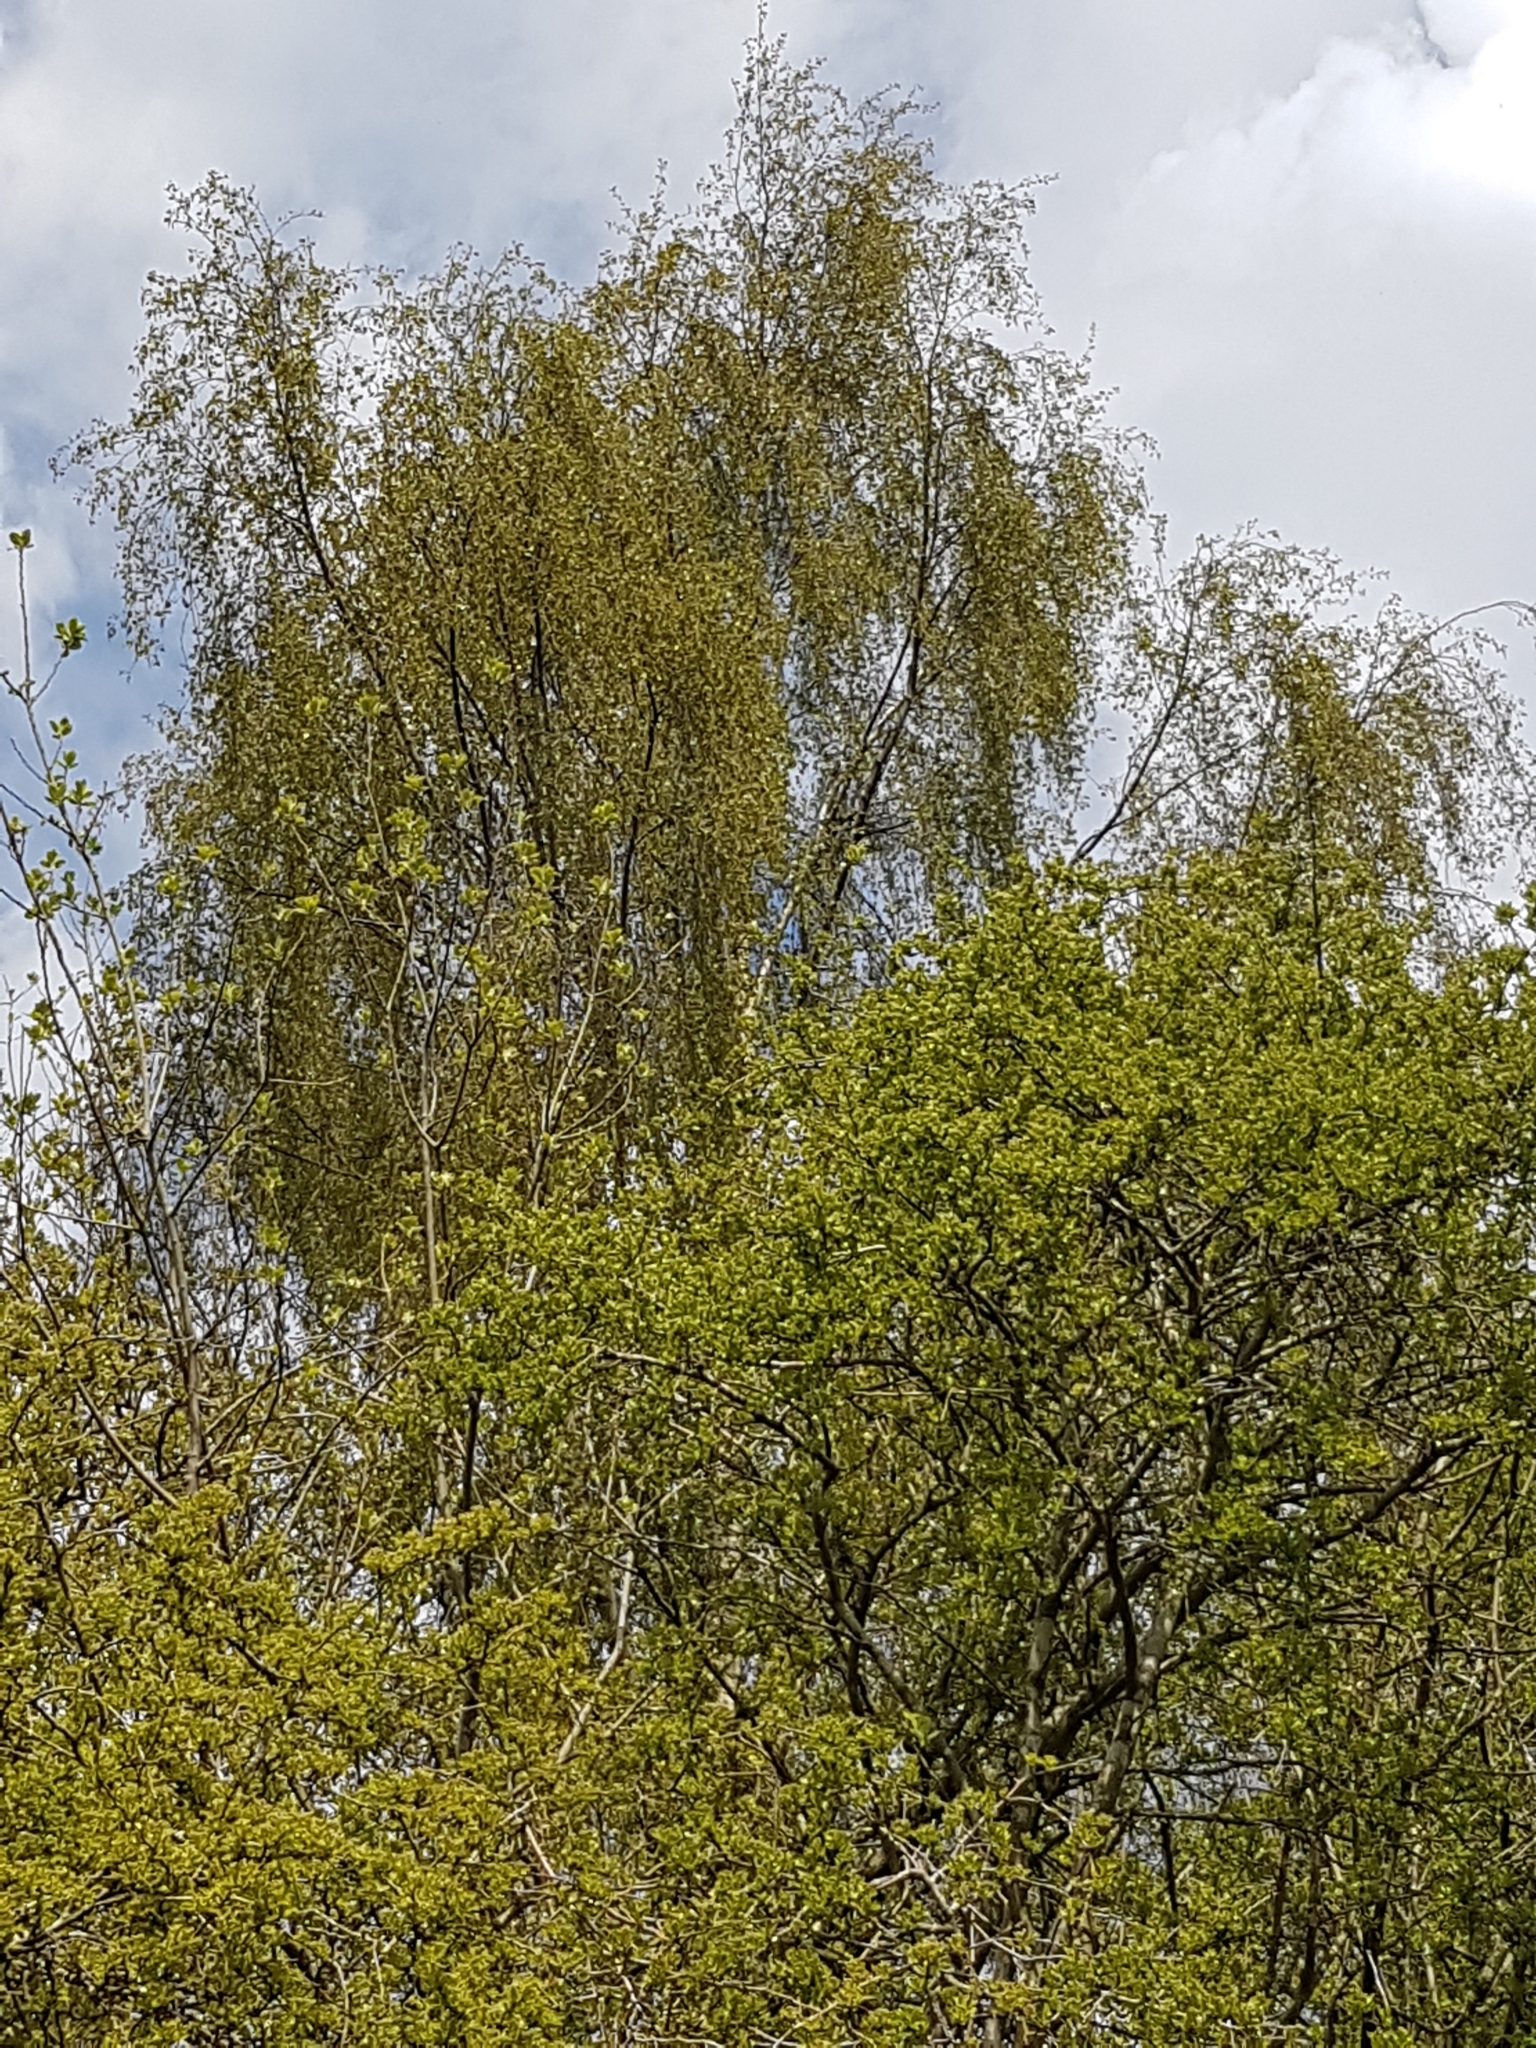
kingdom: Plantae
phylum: Tracheophyta
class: Magnoliopsida
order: Fagales
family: Betulaceae
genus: Betula
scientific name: Betula pendula
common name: Silver birch
